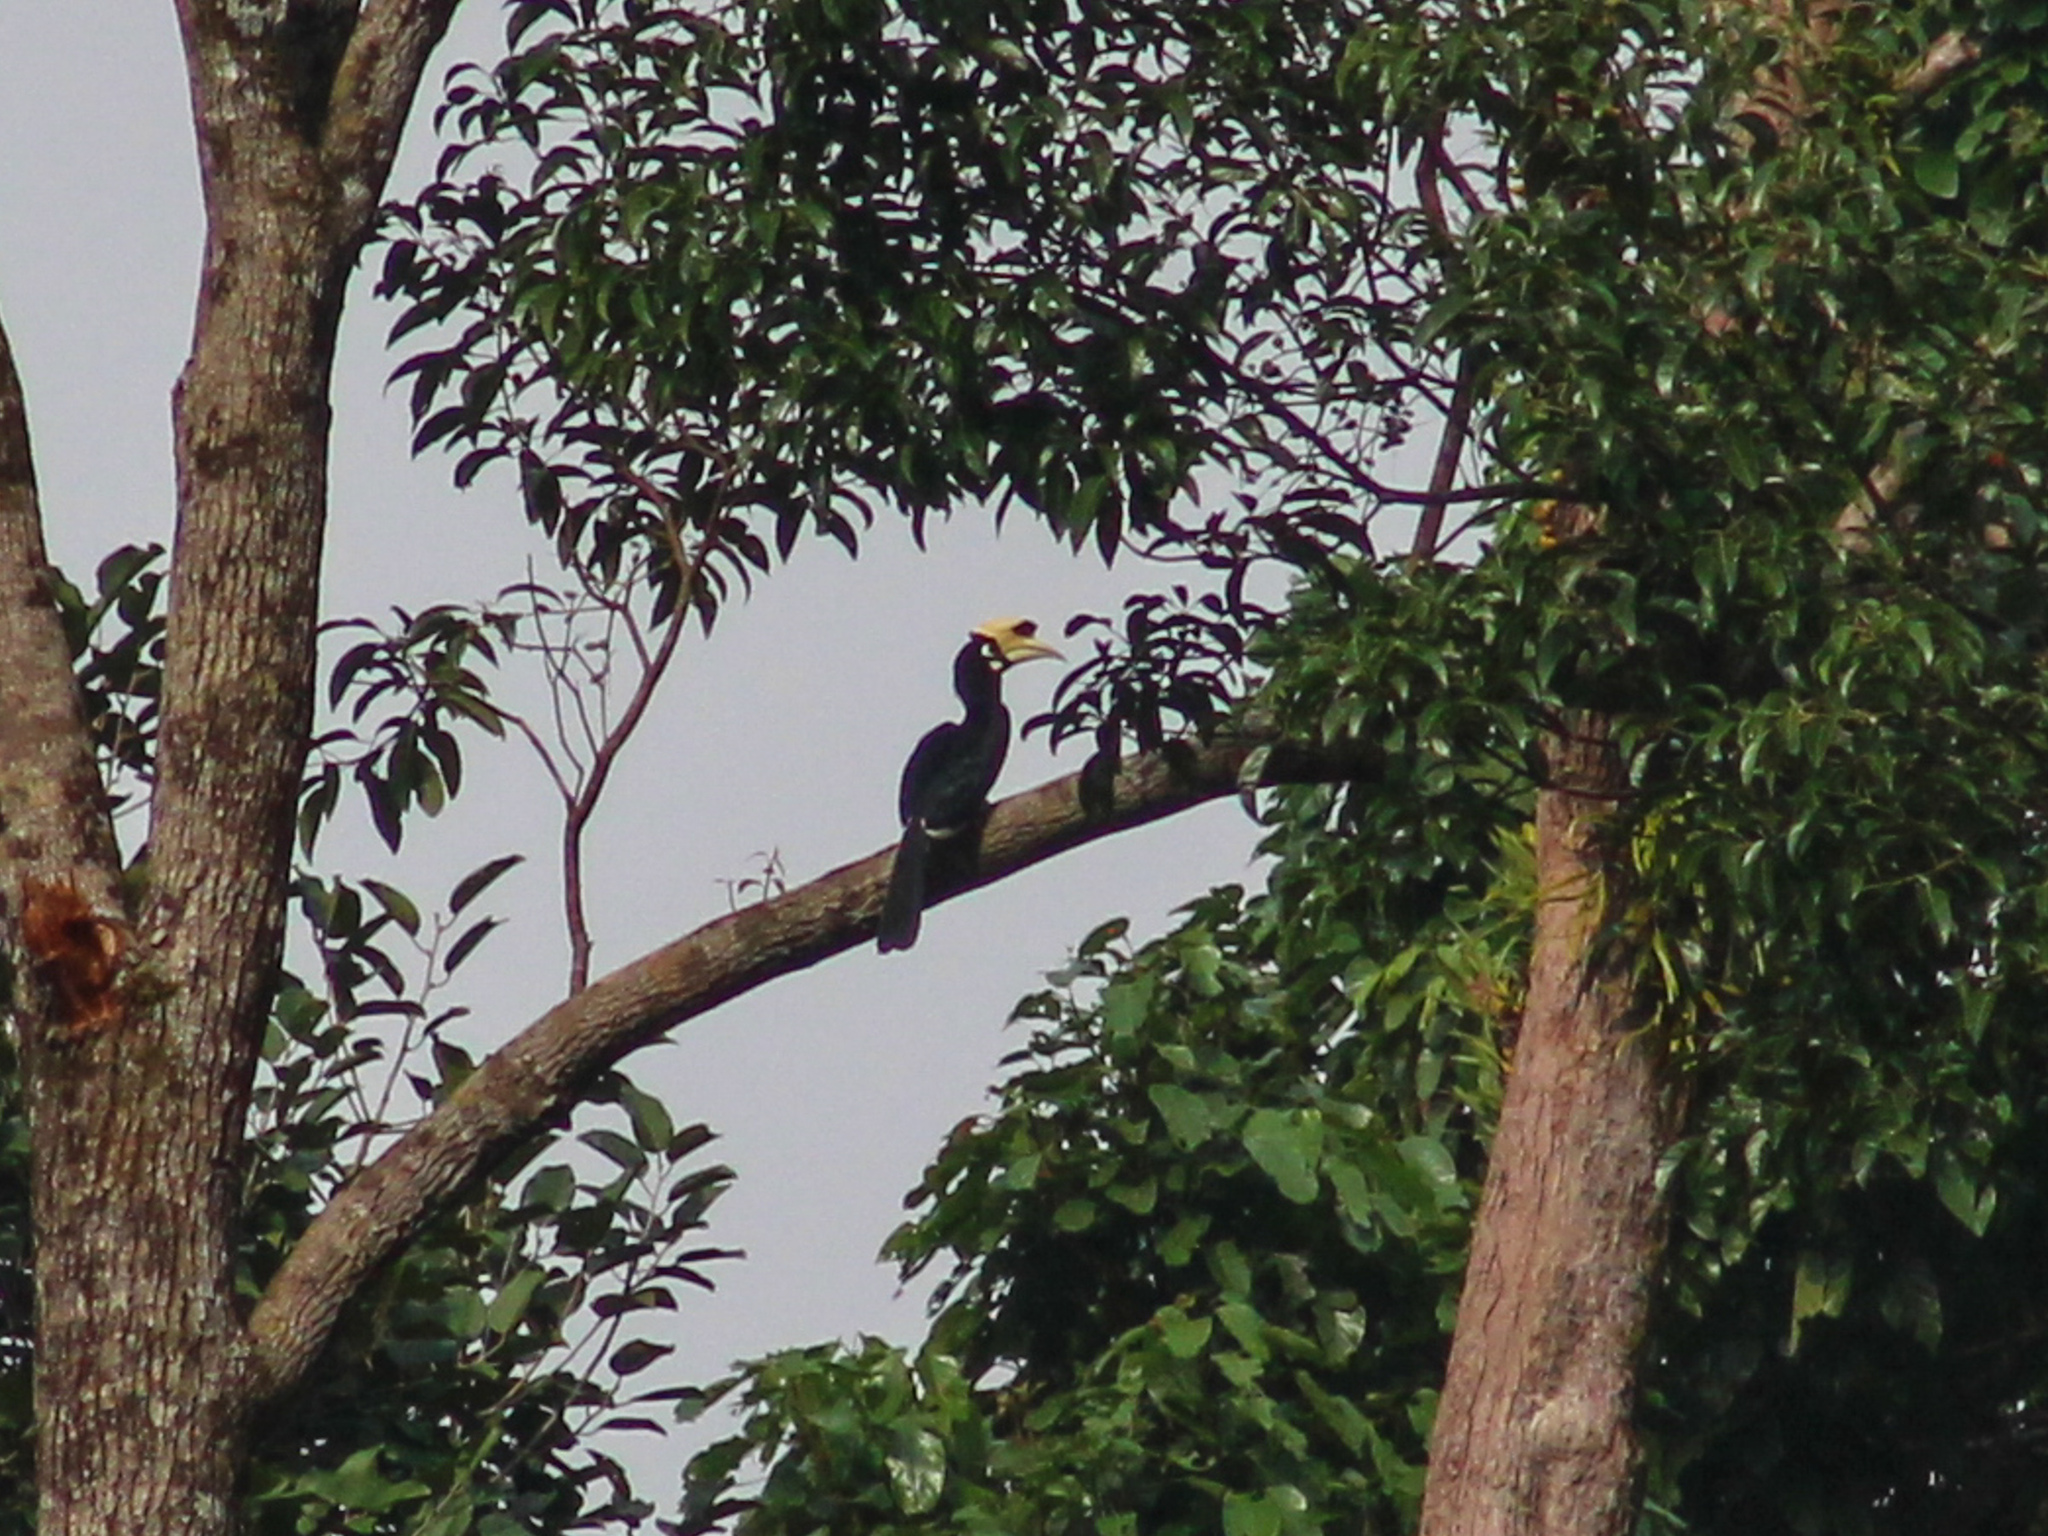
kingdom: Animalia
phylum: Chordata
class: Aves
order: Bucerotiformes
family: Bucerotidae
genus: Anthracoceros
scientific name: Anthracoceros albirostris
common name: Oriental pied-hornbill
